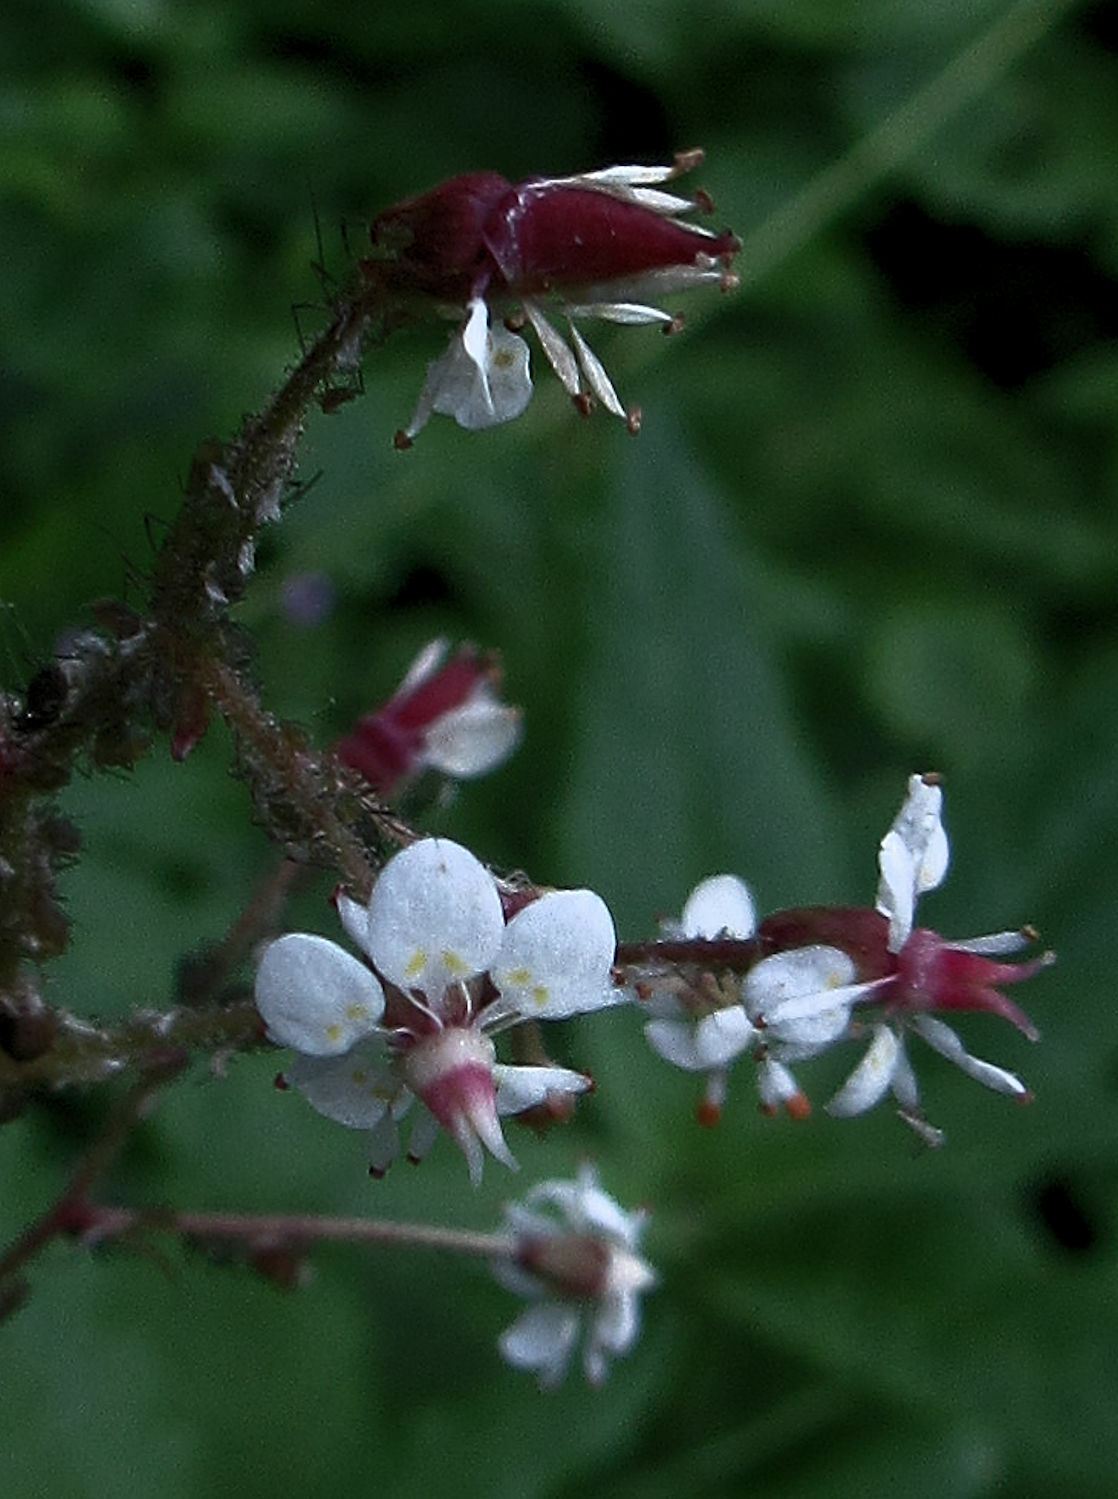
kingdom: Plantae
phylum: Tracheophyta
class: Magnoliopsida
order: Saxifragales
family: Saxifragaceae
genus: Micranthes
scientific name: Micranthes odontoloma
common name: Brook saxifrage
